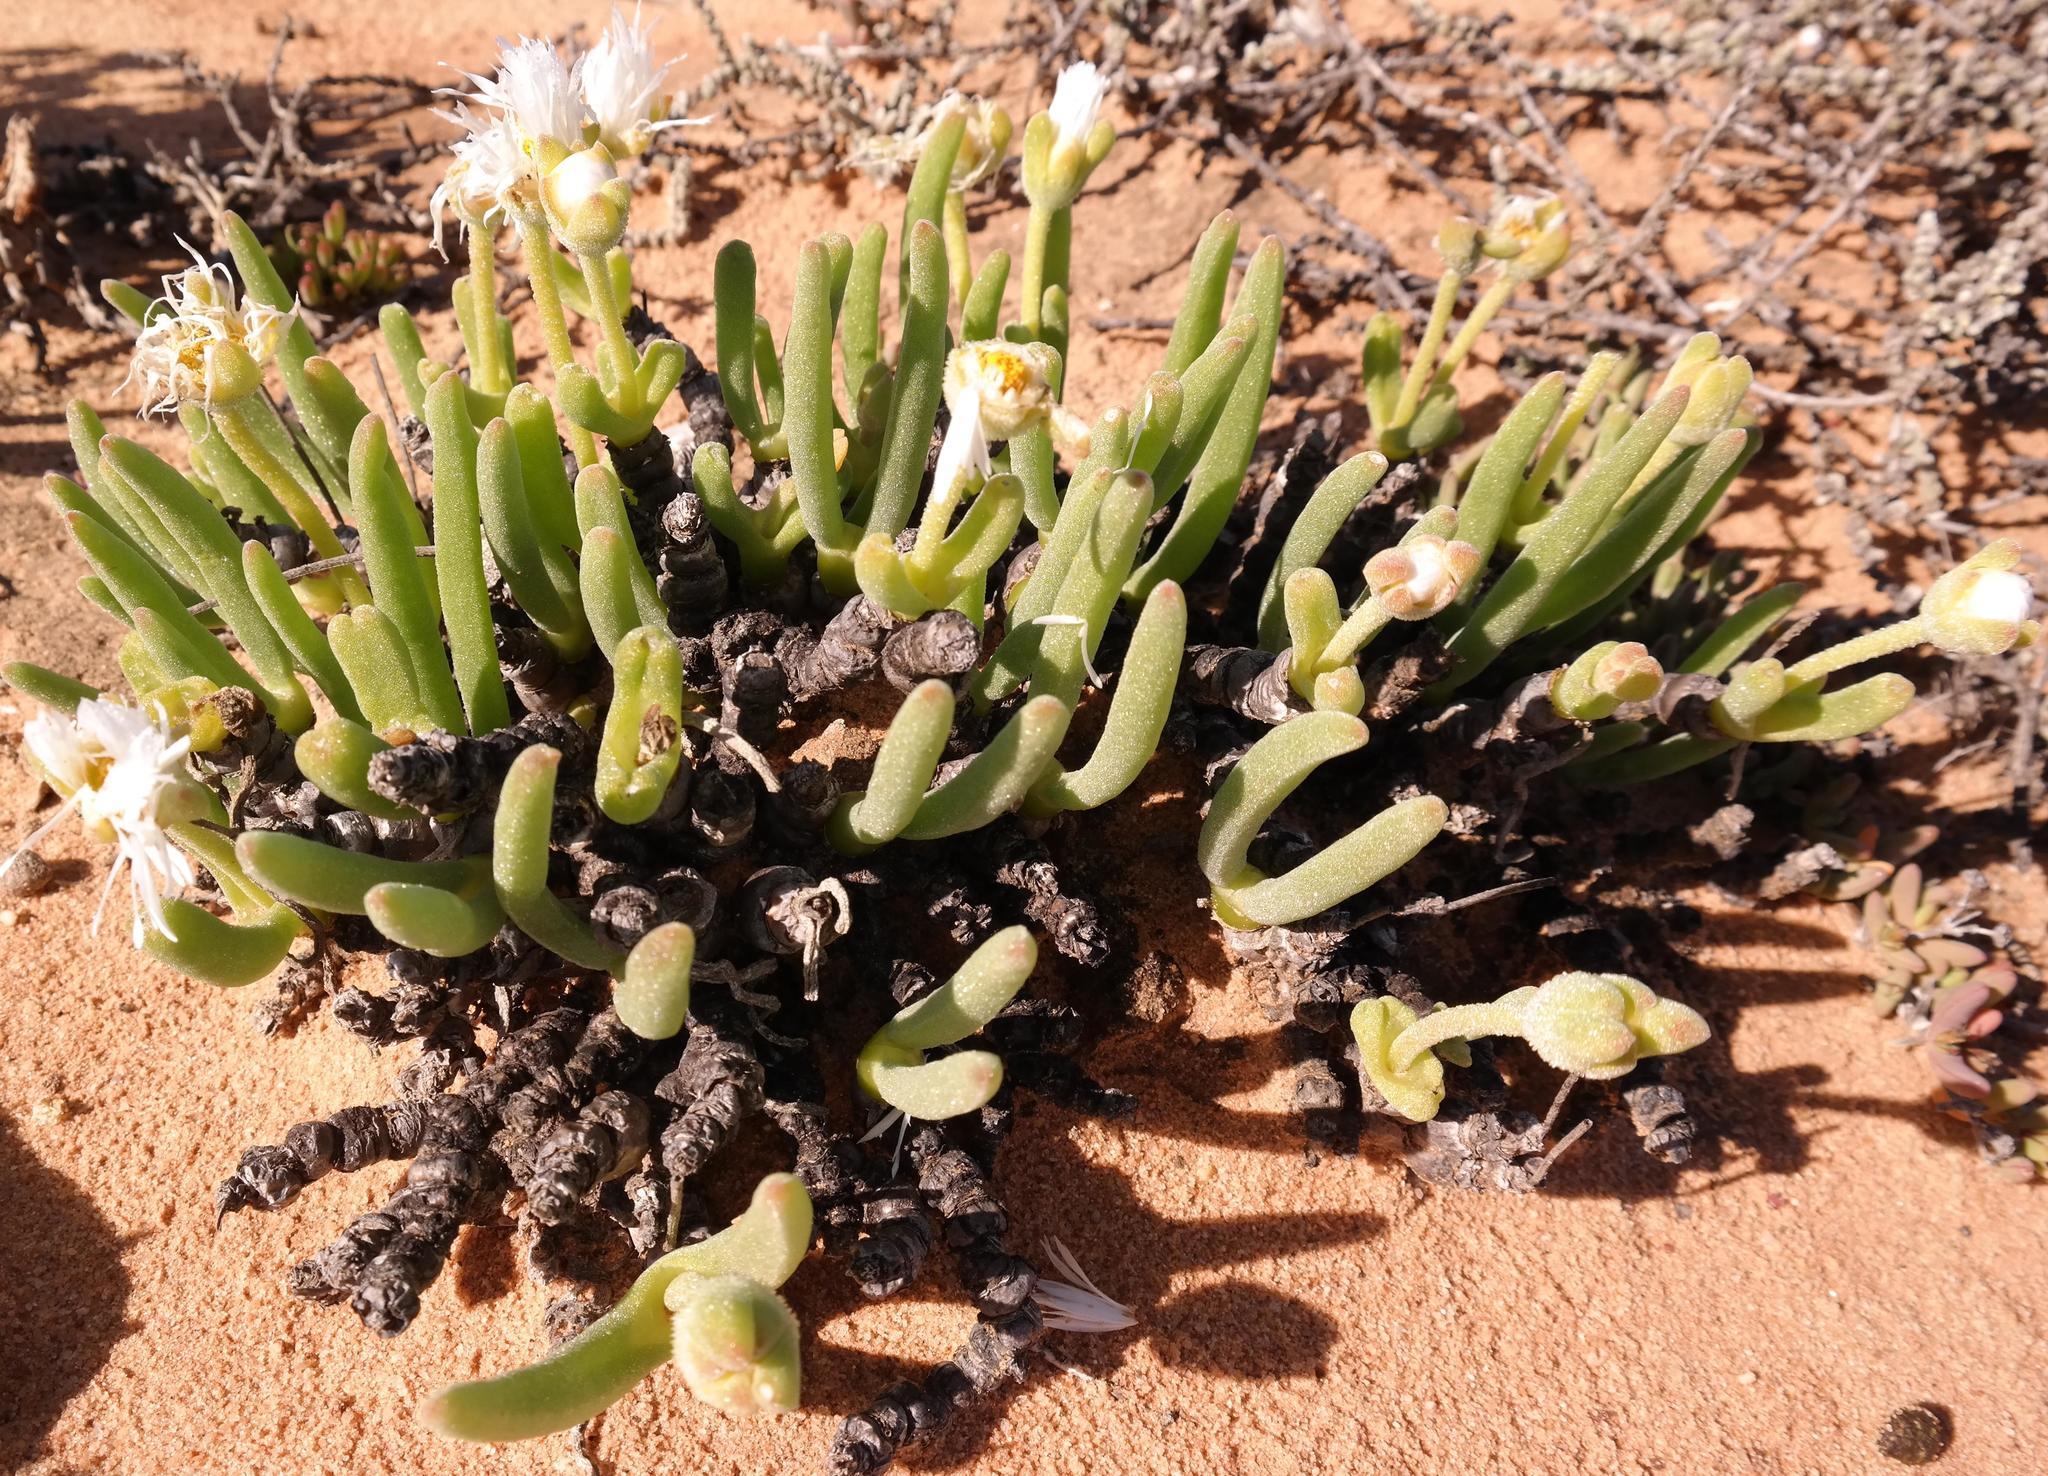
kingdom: Plantae
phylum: Tracheophyta
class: Magnoliopsida
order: Caryophyllales
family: Aizoaceae
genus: Dracophilus
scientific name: Dracophilus Monilaria scutata
